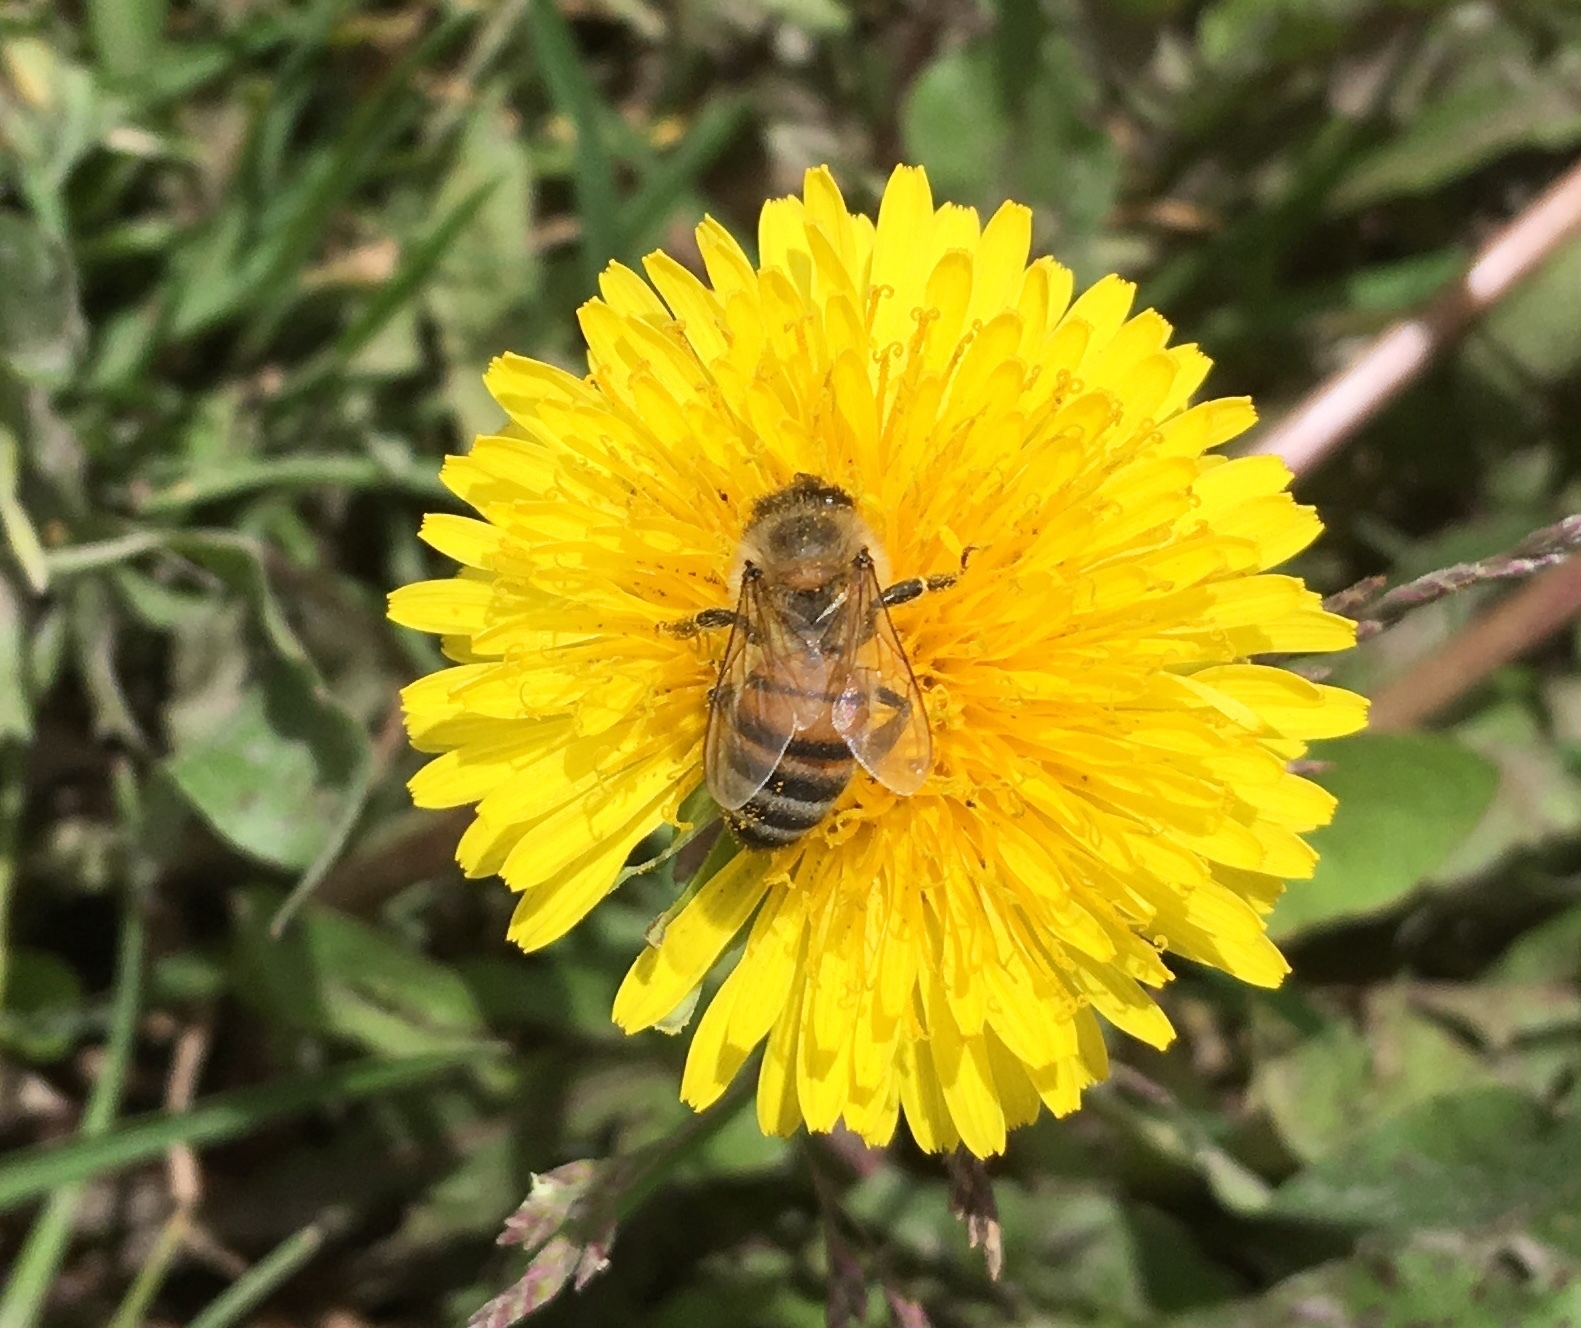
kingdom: Animalia
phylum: Arthropoda
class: Insecta
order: Hymenoptera
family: Apidae
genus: Apis
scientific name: Apis mellifera
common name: Honey bee
